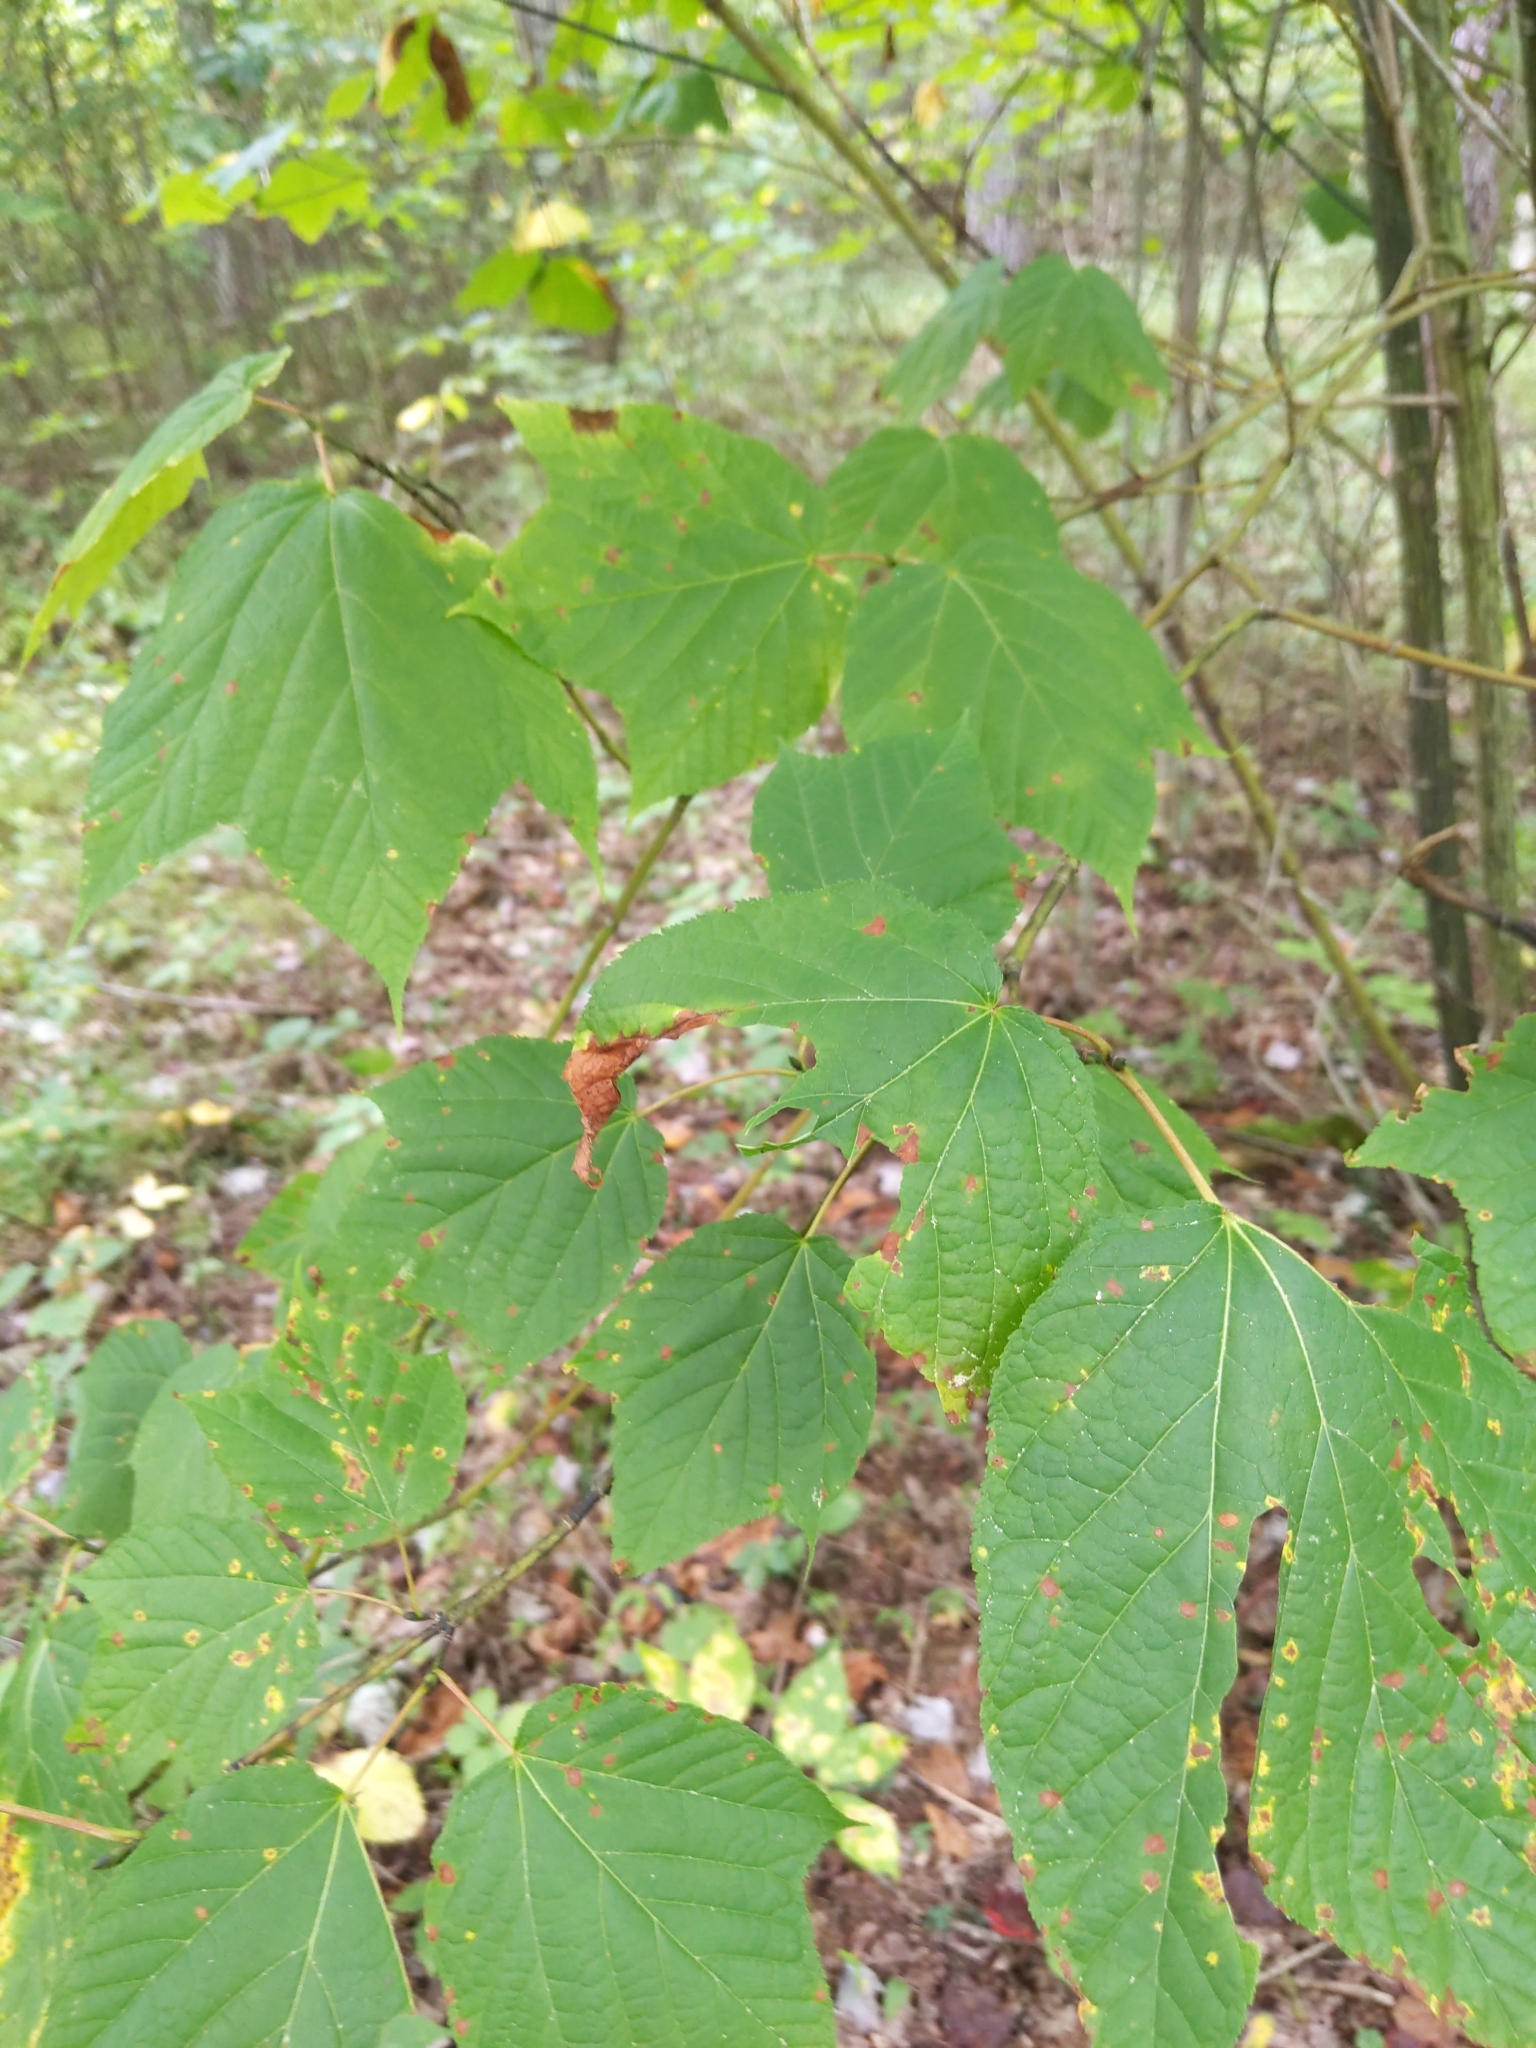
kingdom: Plantae
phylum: Tracheophyta
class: Magnoliopsida
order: Sapindales
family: Sapindaceae
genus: Acer
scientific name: Acer pensylvanicum
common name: Moosewood
